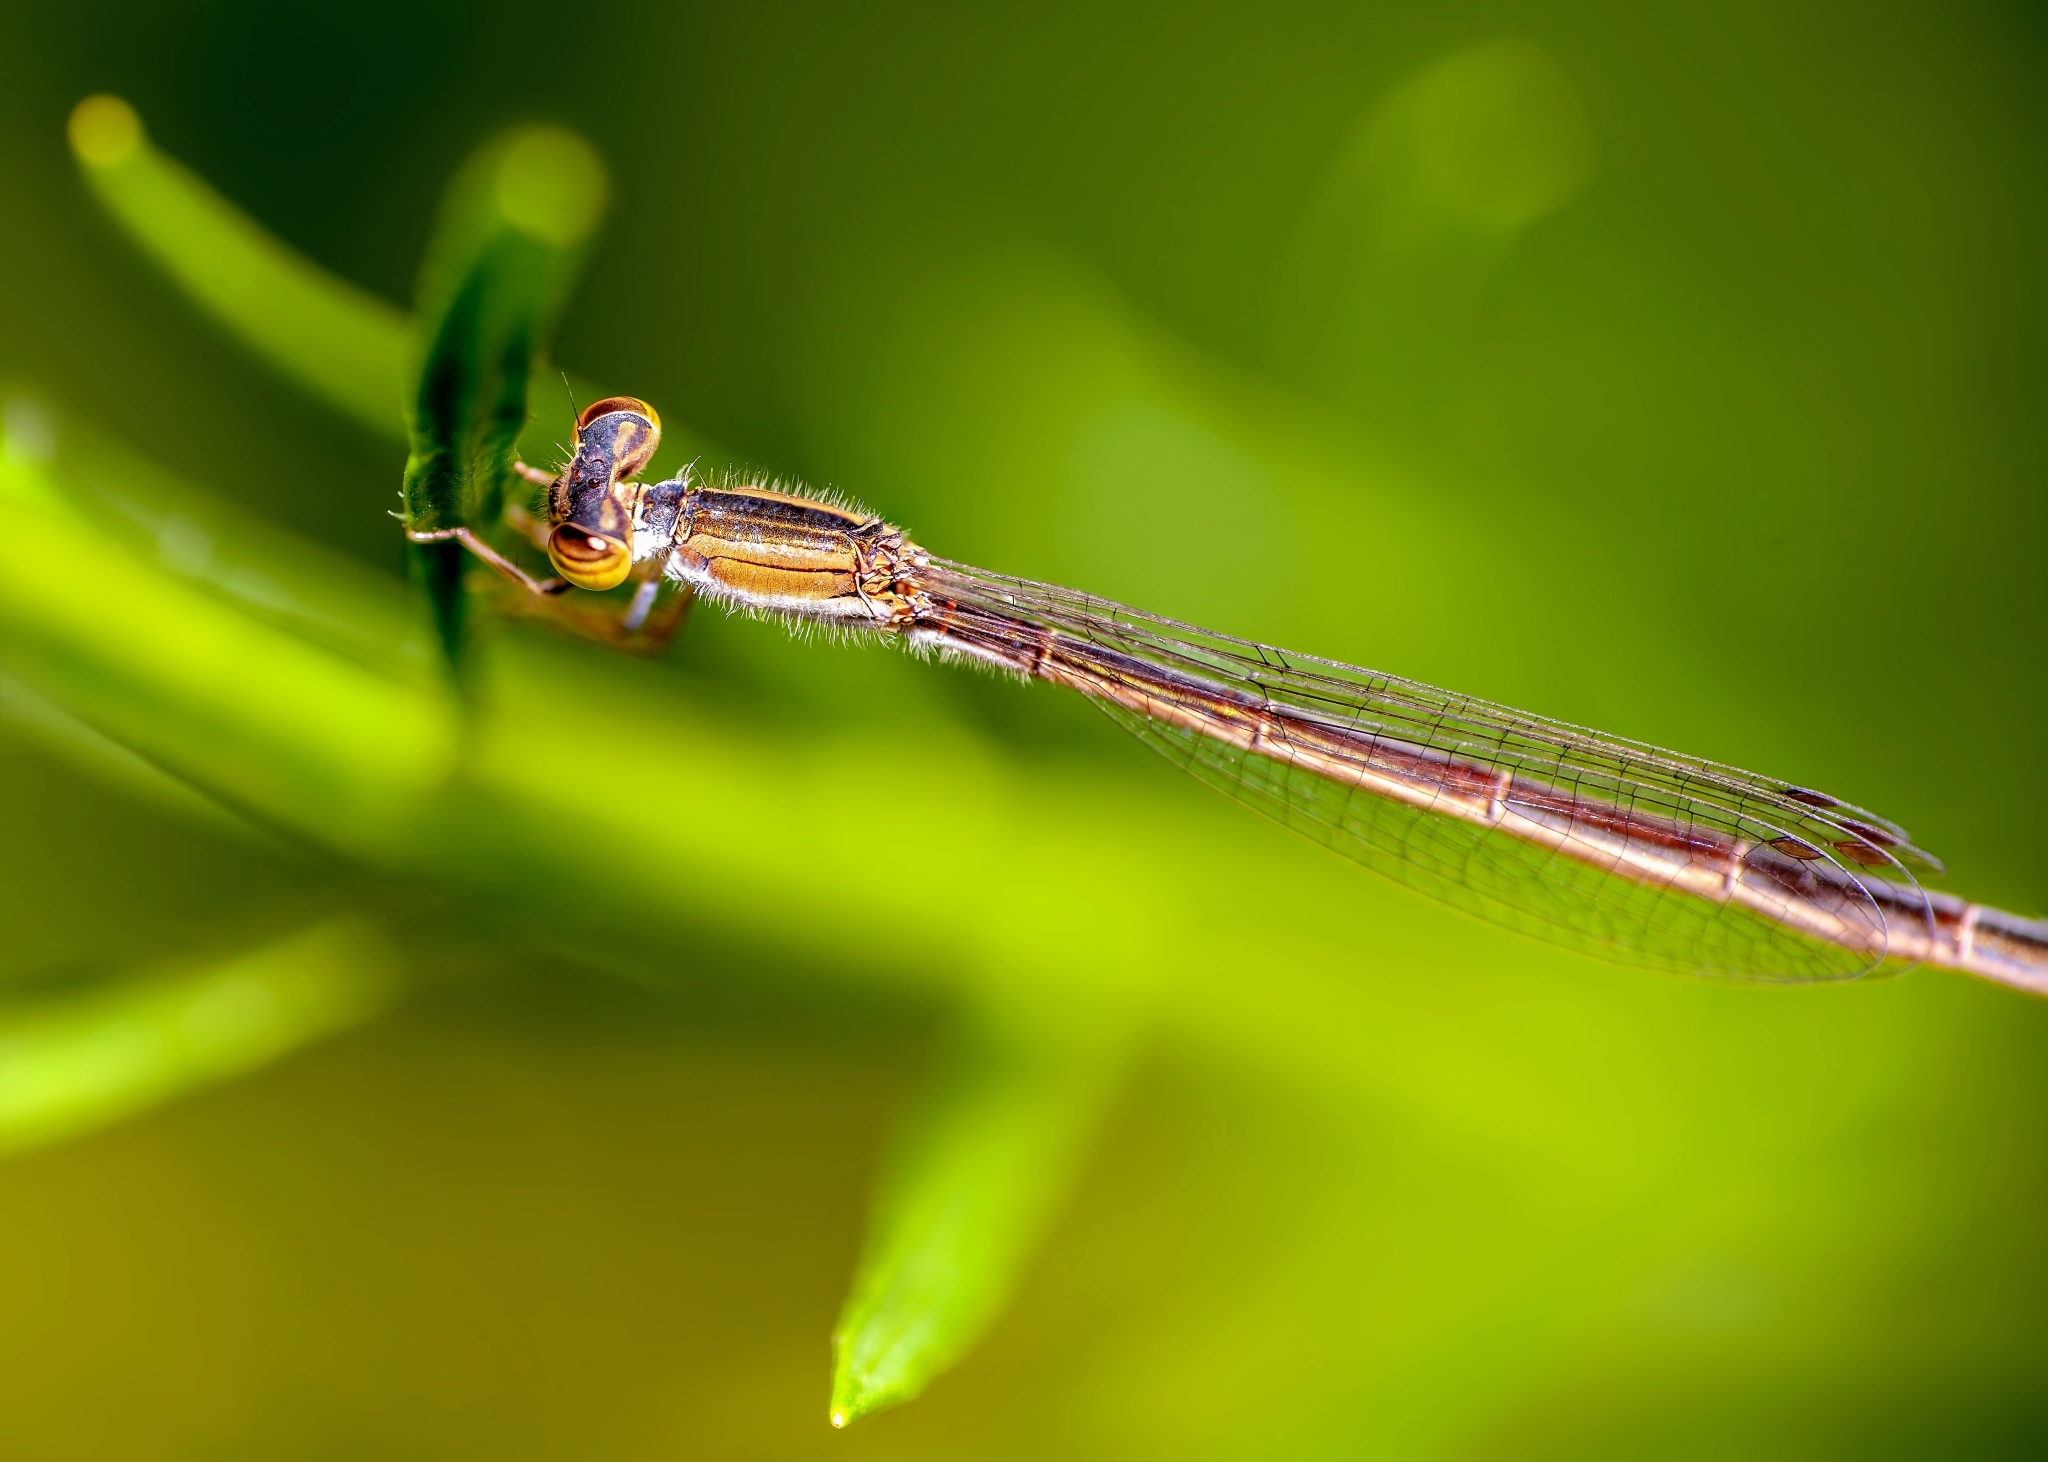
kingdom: Animalia
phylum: Arthropoda
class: Insecta
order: Odonata
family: Coenagrionidae
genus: Ischnura
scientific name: Ischnura hastata
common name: Citrine forktail
